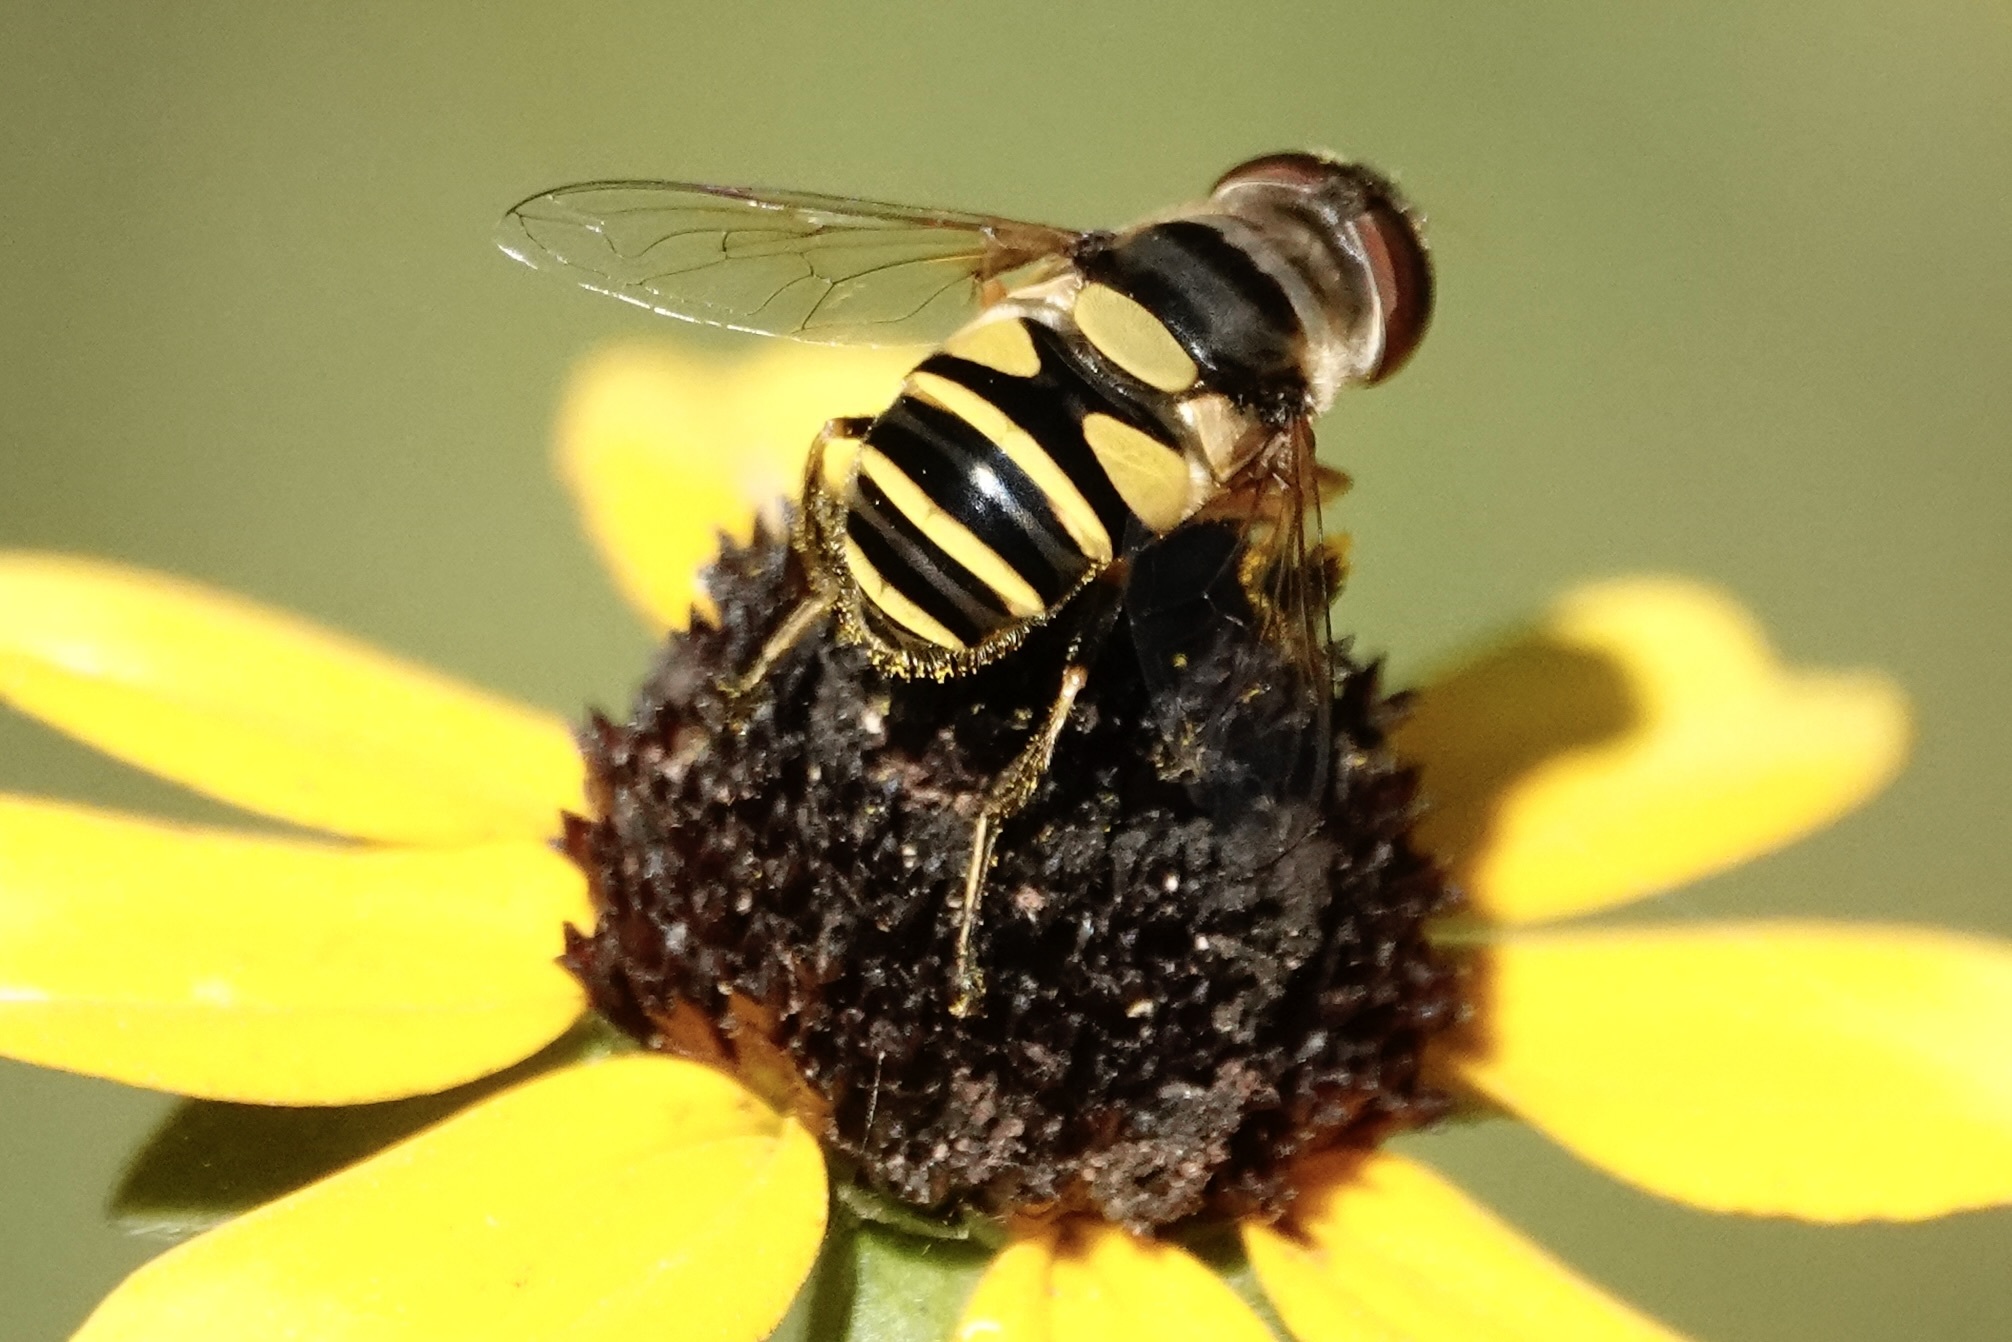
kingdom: Animalia
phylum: Arthropoda
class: Insecta
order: Diptera
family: Syrphidae
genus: Eristalis
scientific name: Eristalis transversa
